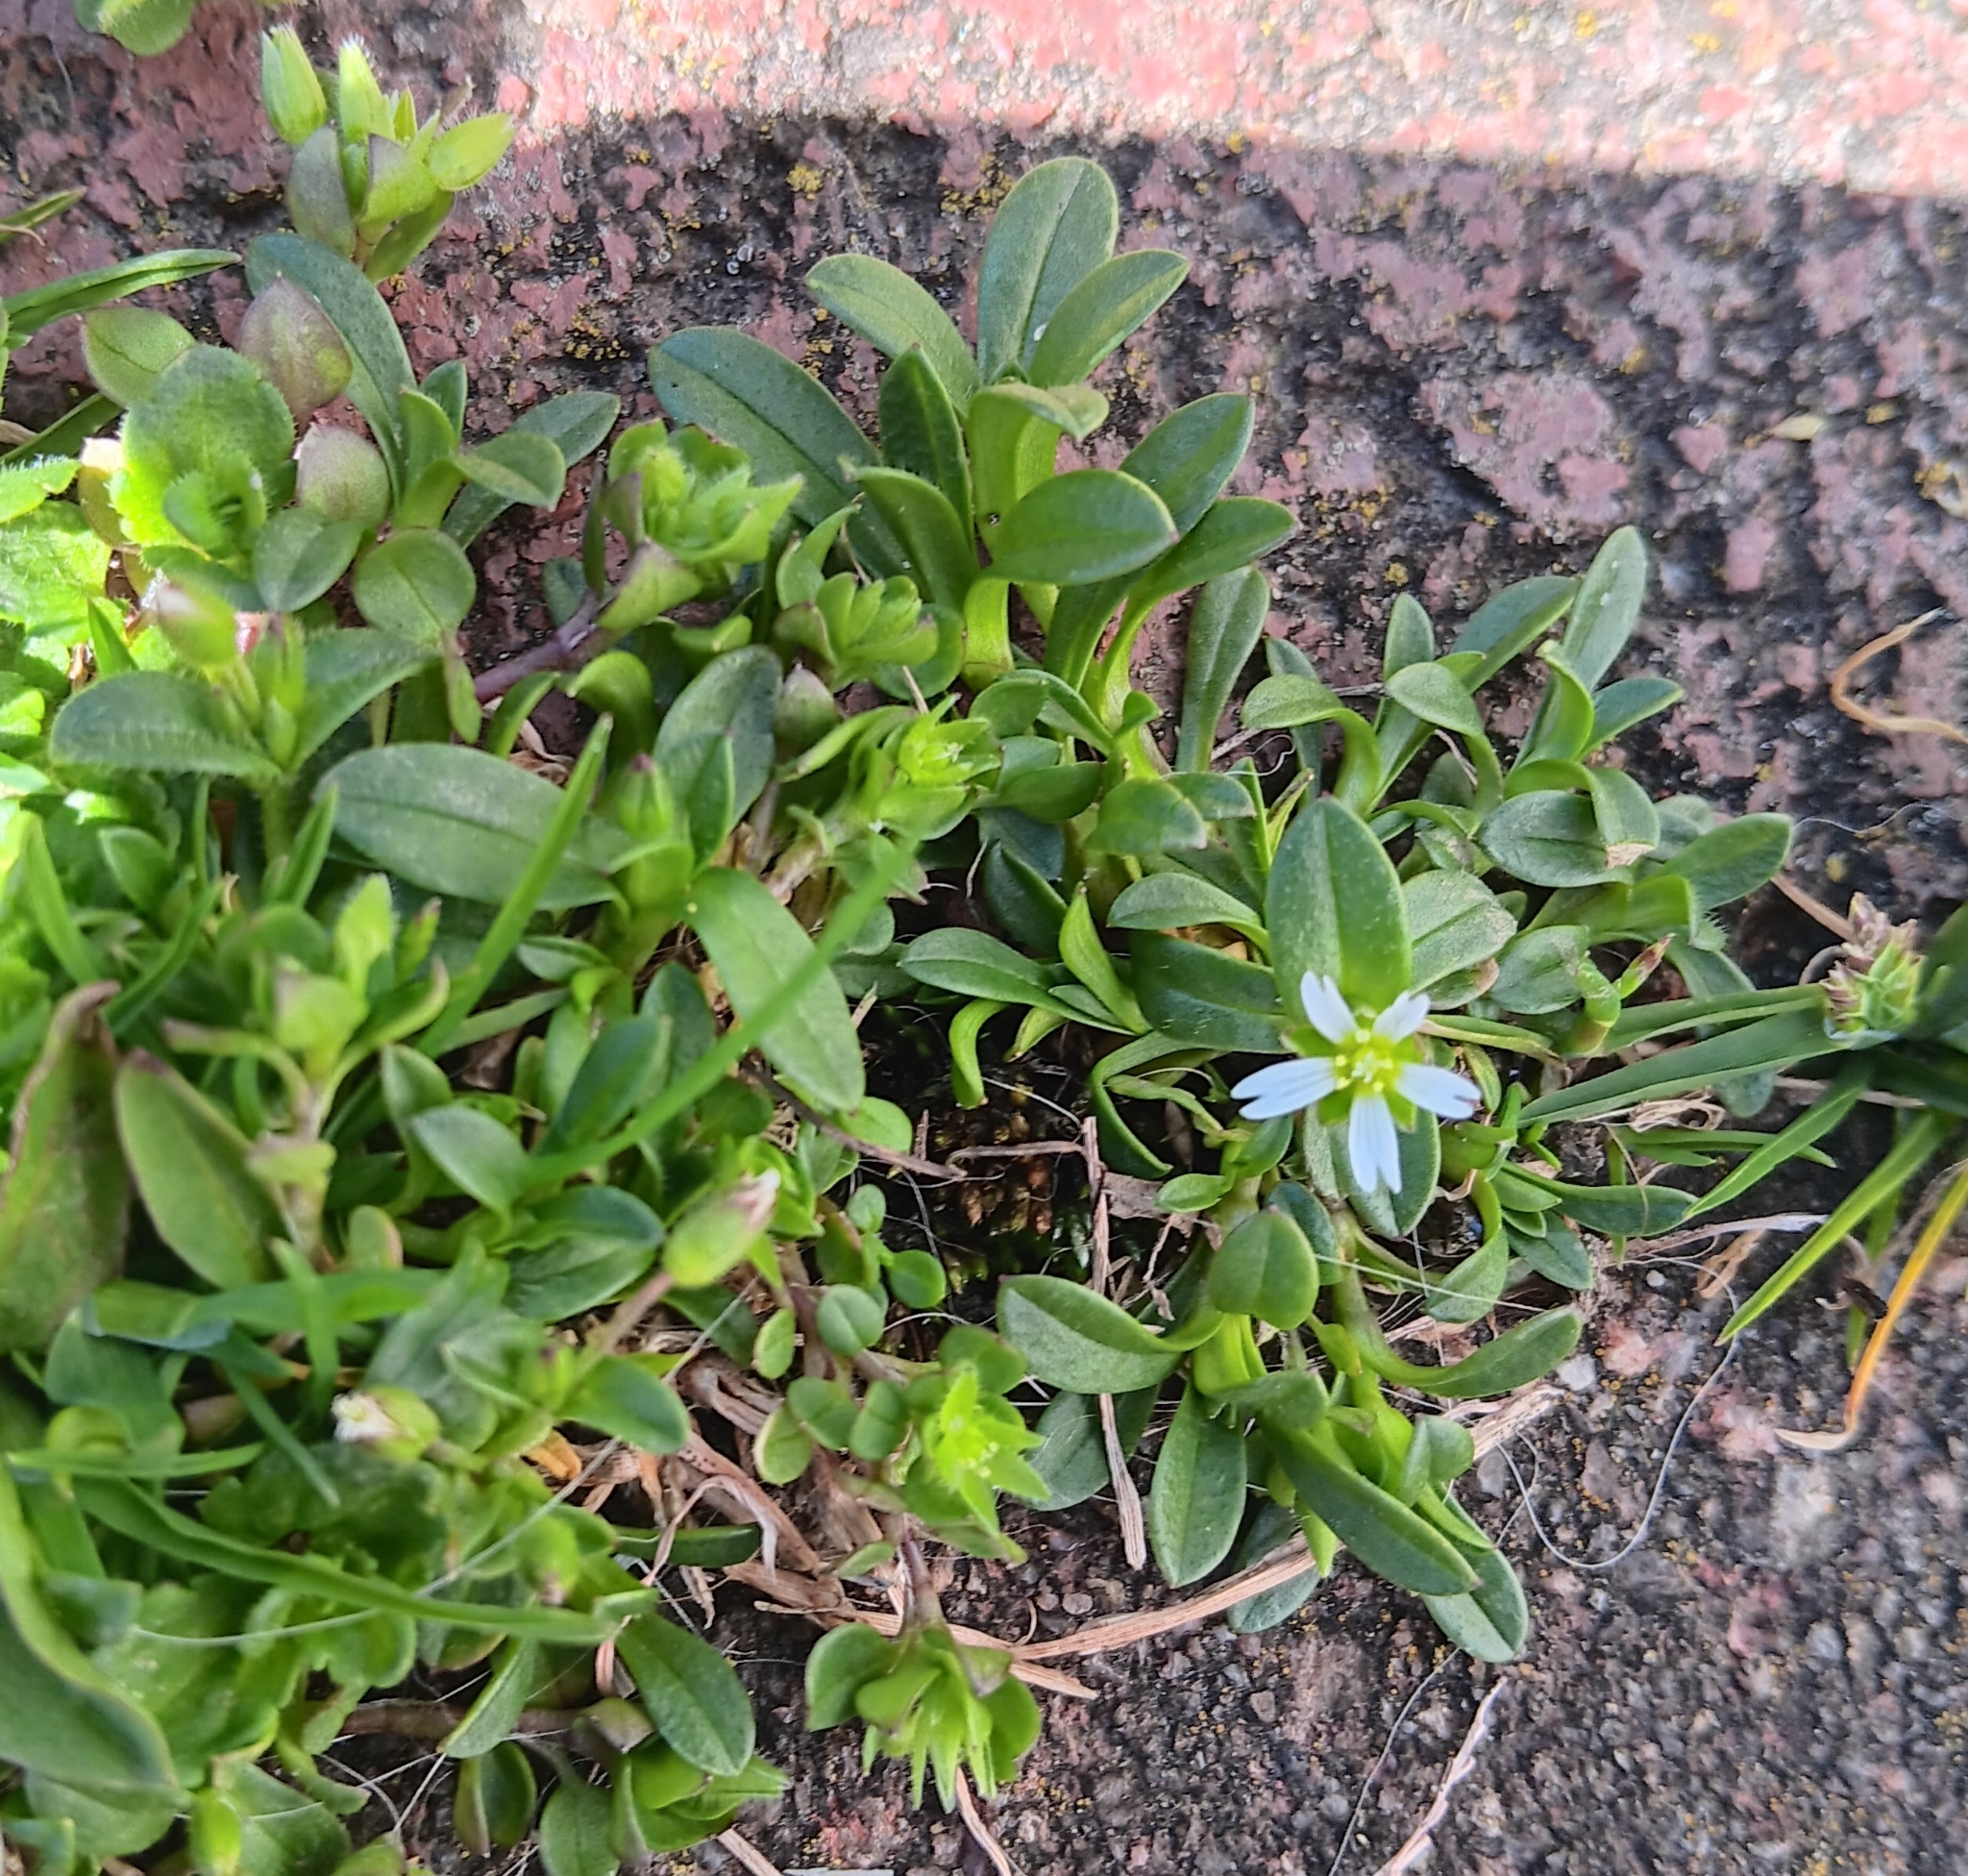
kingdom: Plantae
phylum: Tracheophyta
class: Magnoliopsida
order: Caryophyllales
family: Caryophyllaceae
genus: Cerastium
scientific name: Cerastium fontanum
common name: Common mouse-ear
